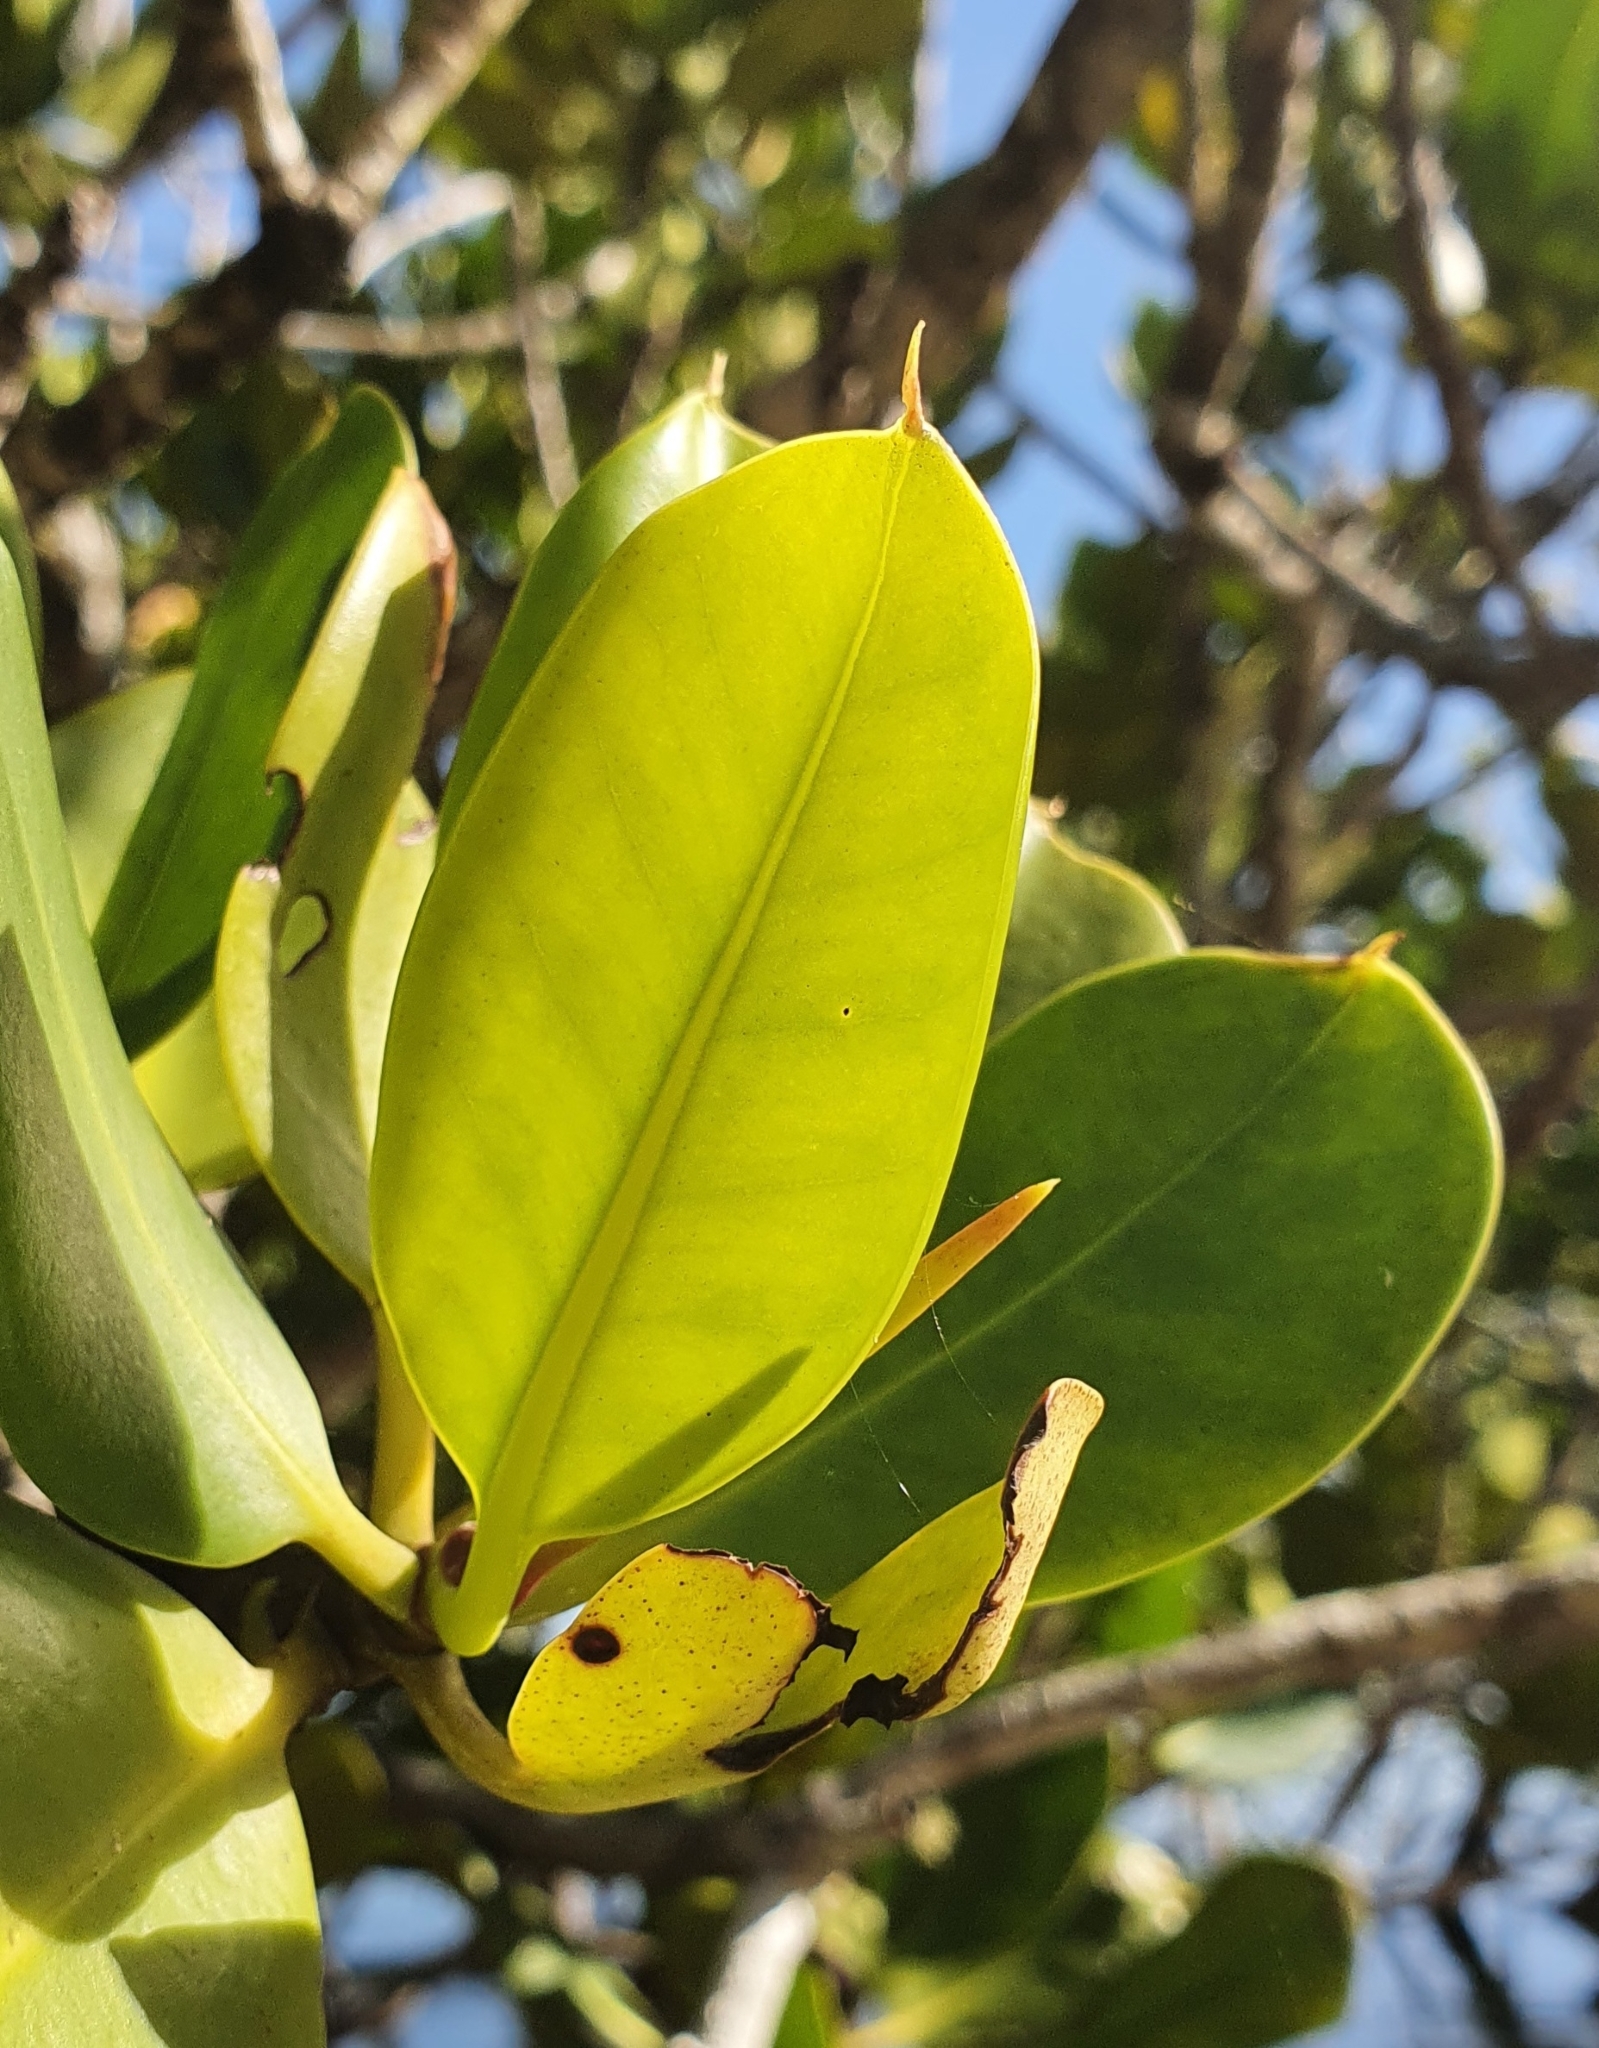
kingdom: Plantae
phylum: Tracheophyta
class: Magnoliopsida
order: Malpighiales
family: Rhizophoraceae
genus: Rhizophora
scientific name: Rhizophora stylosa
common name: Red mangrove
